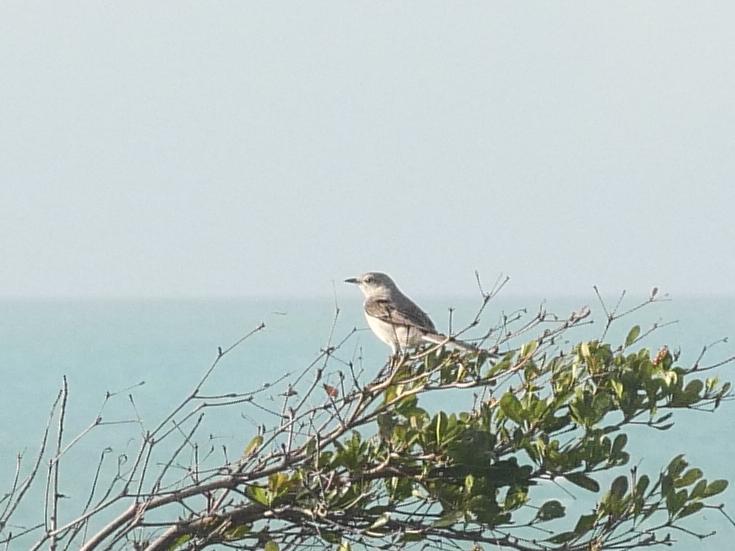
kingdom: Animalia
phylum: Chordata
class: Aves
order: Passeriformes
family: Mimidae
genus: Mimus
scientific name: Mimus polyglottos
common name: Northern mockingbird
